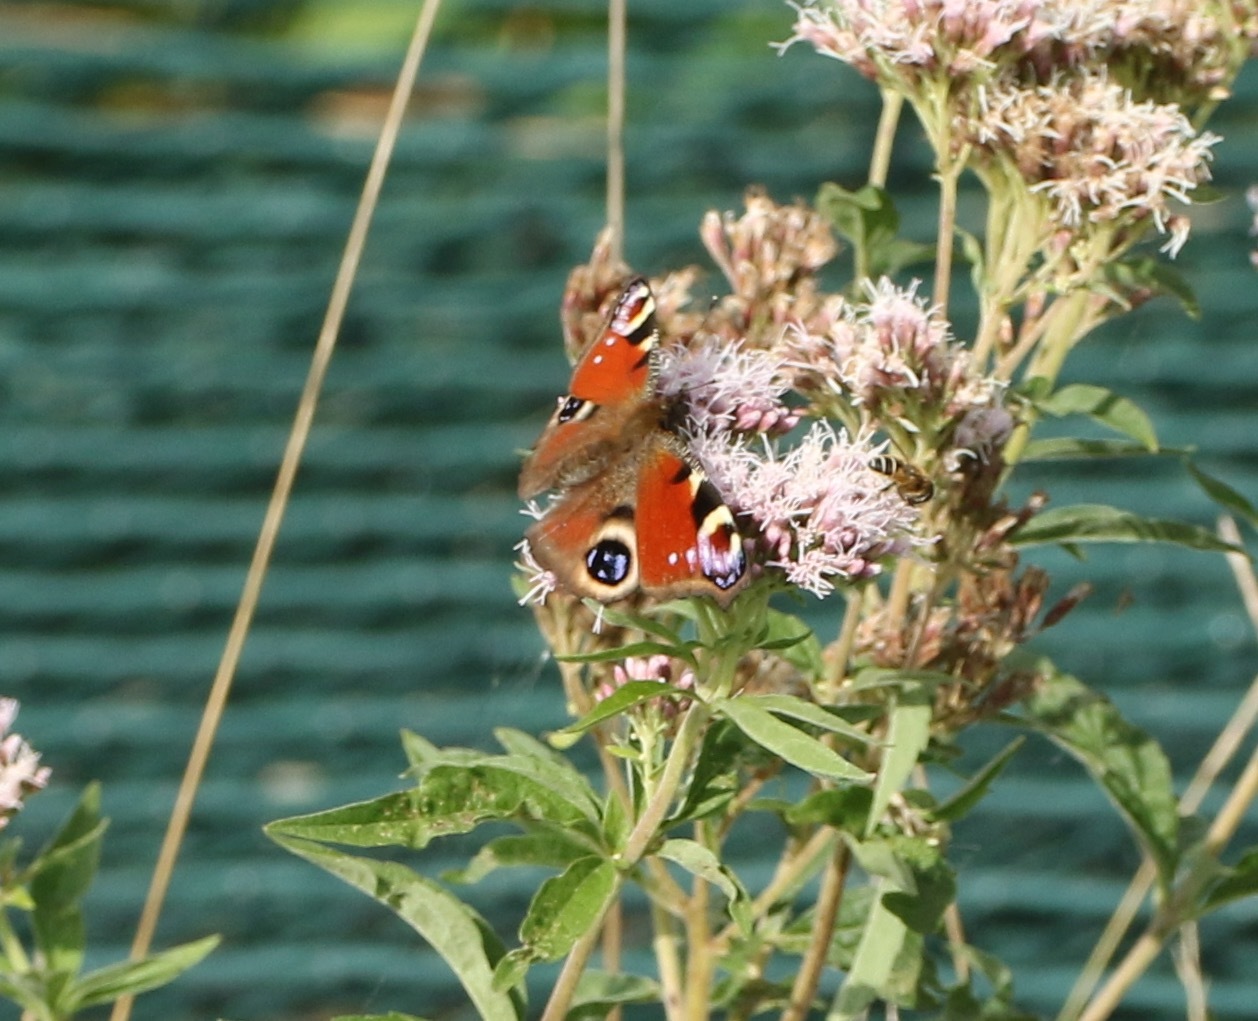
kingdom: Animalia
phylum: Arthropoda
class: Insecta
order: Lepidoptera
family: Nymphalidae
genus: Aglais
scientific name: Aglais io
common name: Peacock
